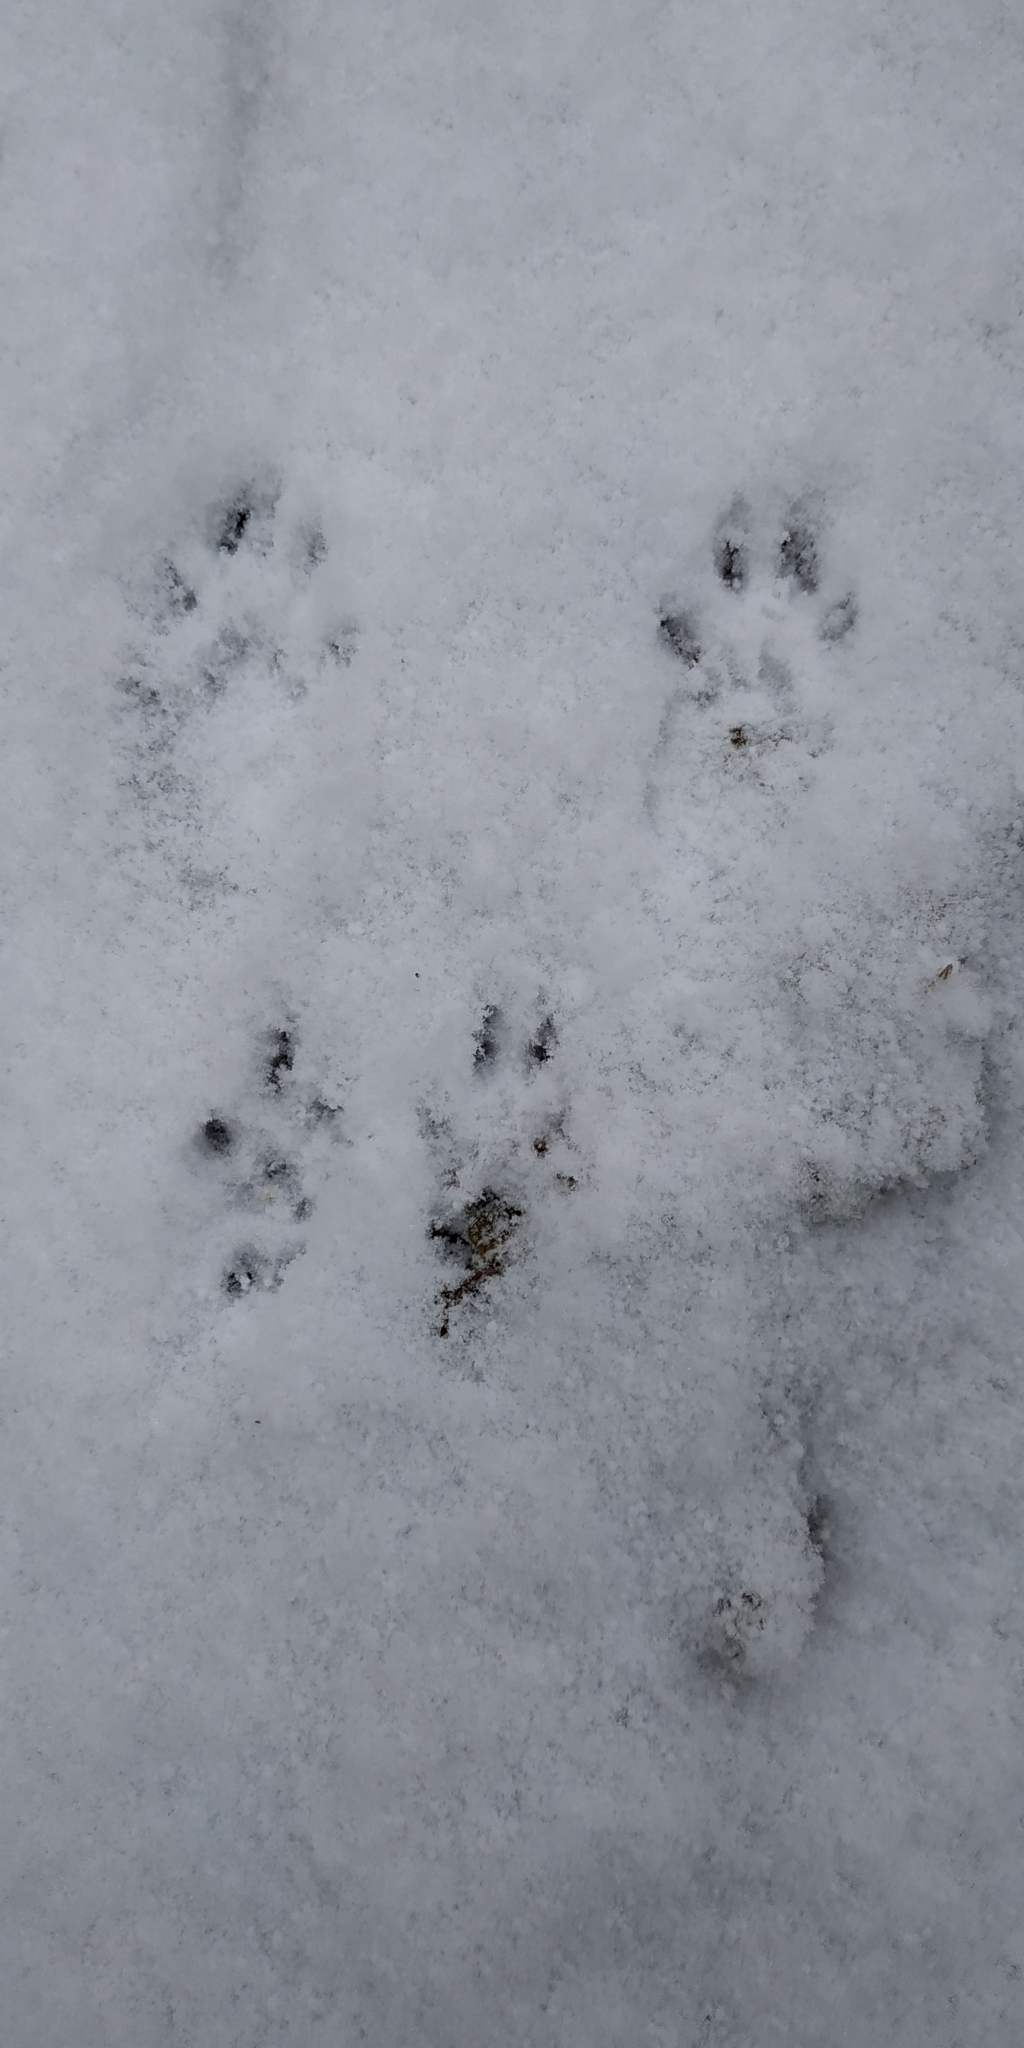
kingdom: Animalia
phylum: Chordata
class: Mammalia
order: Rodentia
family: Sciuridae
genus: Sciurus
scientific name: Sciurus vulgaris
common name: Eurasian red squirrel
